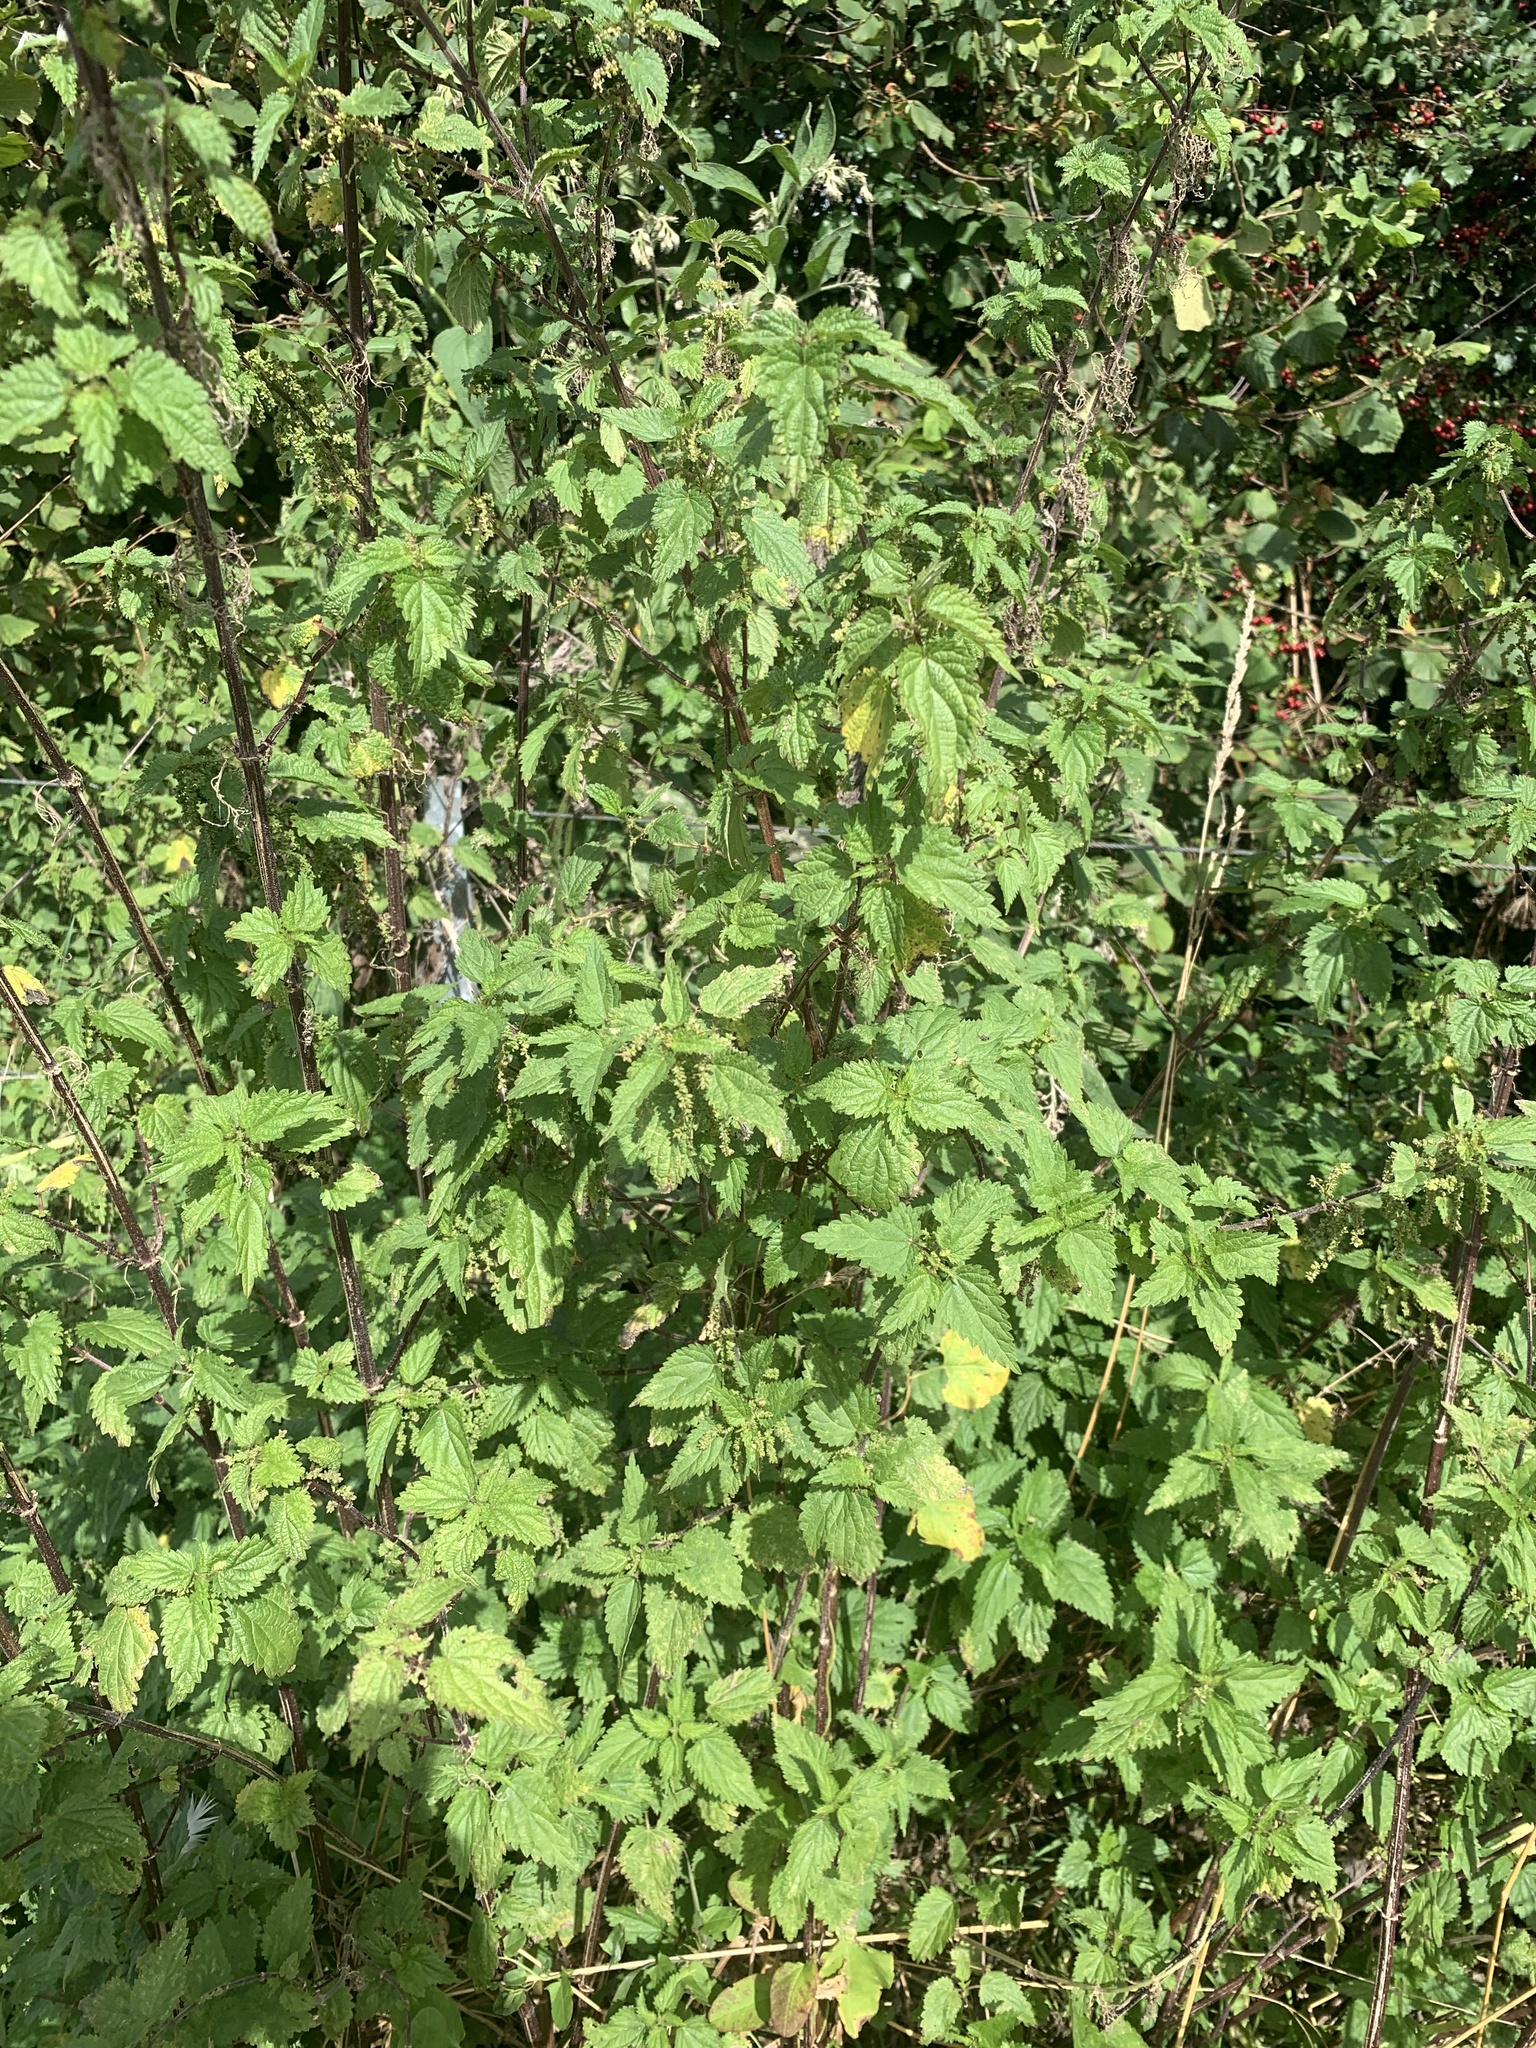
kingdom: Plantae
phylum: Tracheophyta
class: Magnoliopsida
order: Rosales
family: Urticaceae
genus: Urtica
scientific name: Urtica dioica
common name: Common nettle
